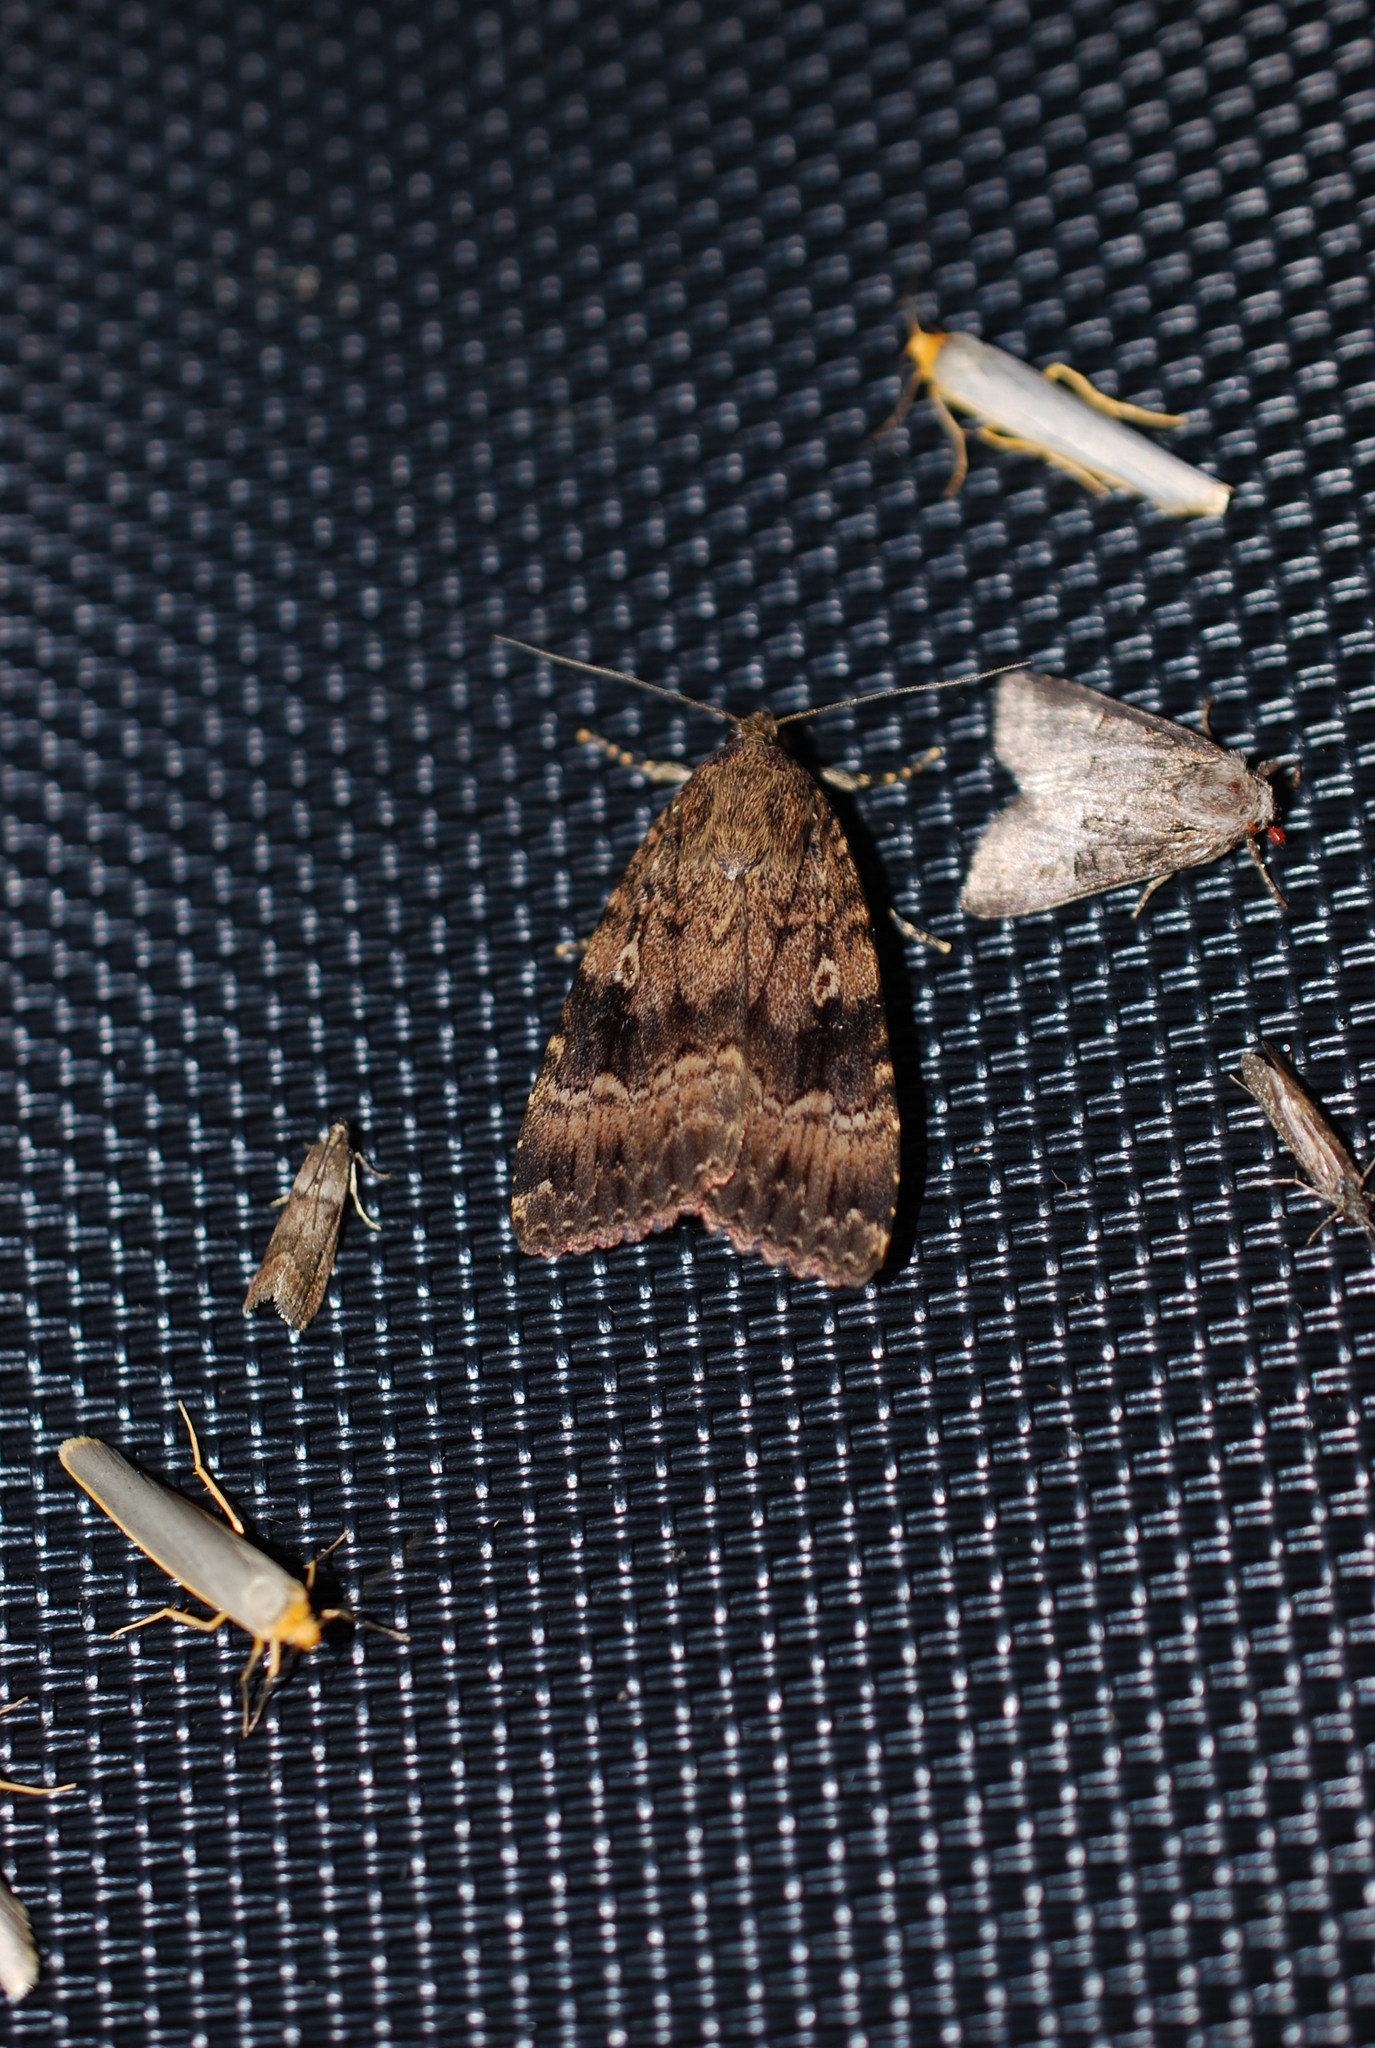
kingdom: Animalia
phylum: Arthropoda
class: Insecta
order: Lepidoptera
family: Noctuidae
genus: Amphipyra
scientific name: Amphipyra berbera
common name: Svensson's copper underwing
